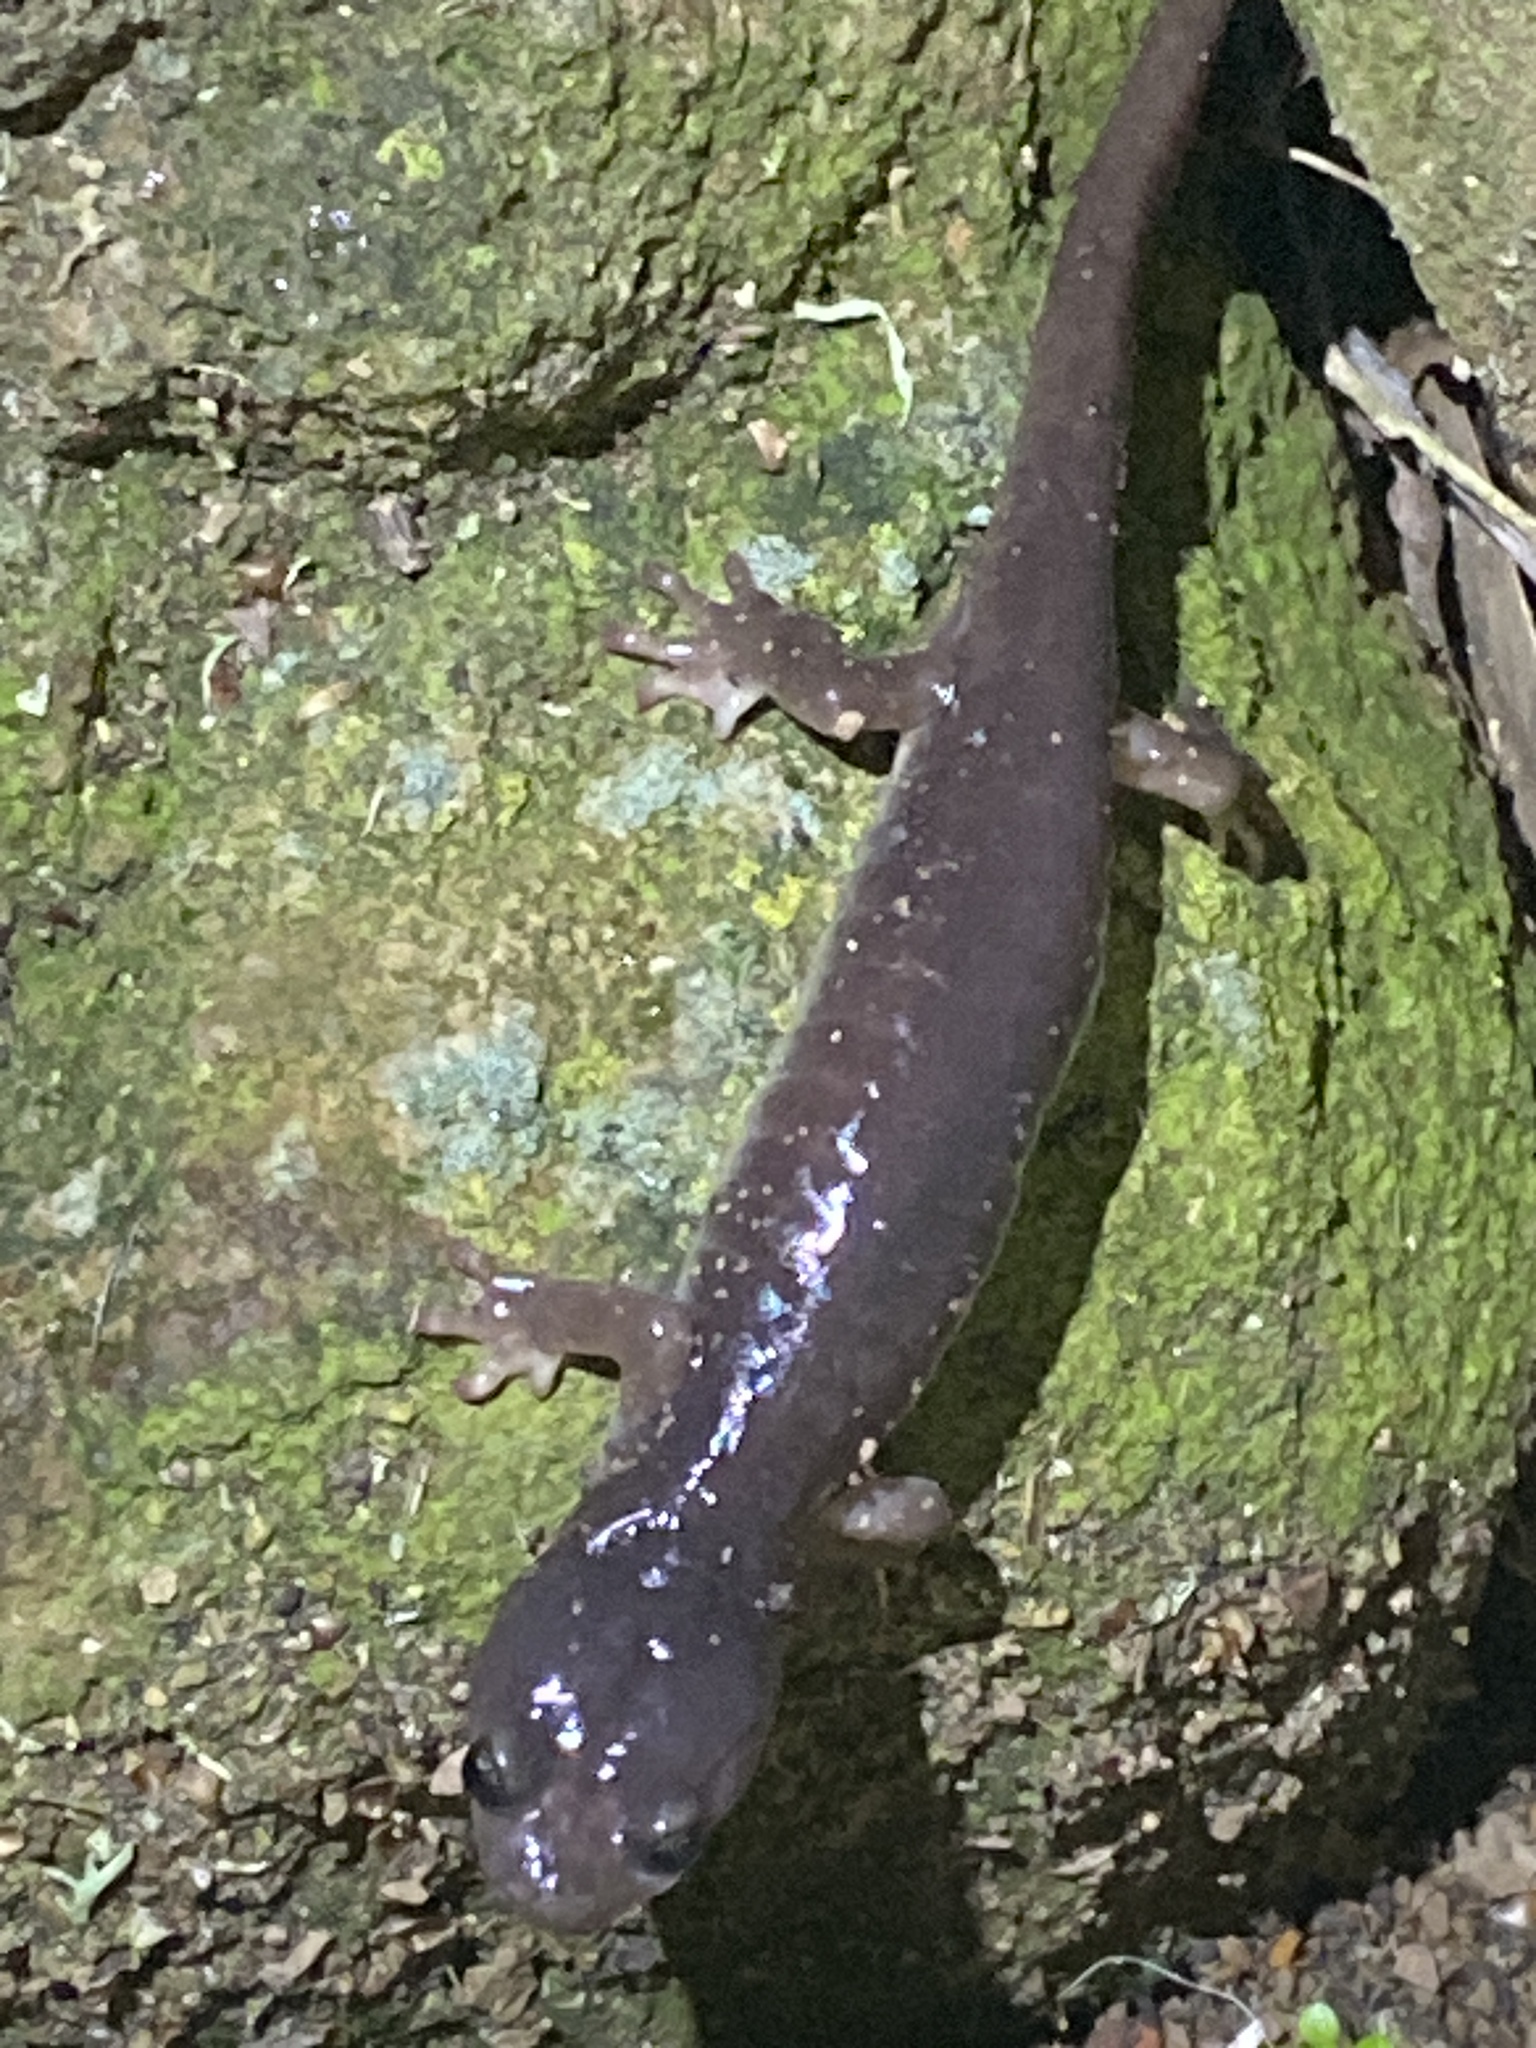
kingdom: Animalia
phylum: Chordata
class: Amphibia
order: Caudata
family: Plethodontidae
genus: Aneides
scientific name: Aneides lugubris
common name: Arboreal salamander
